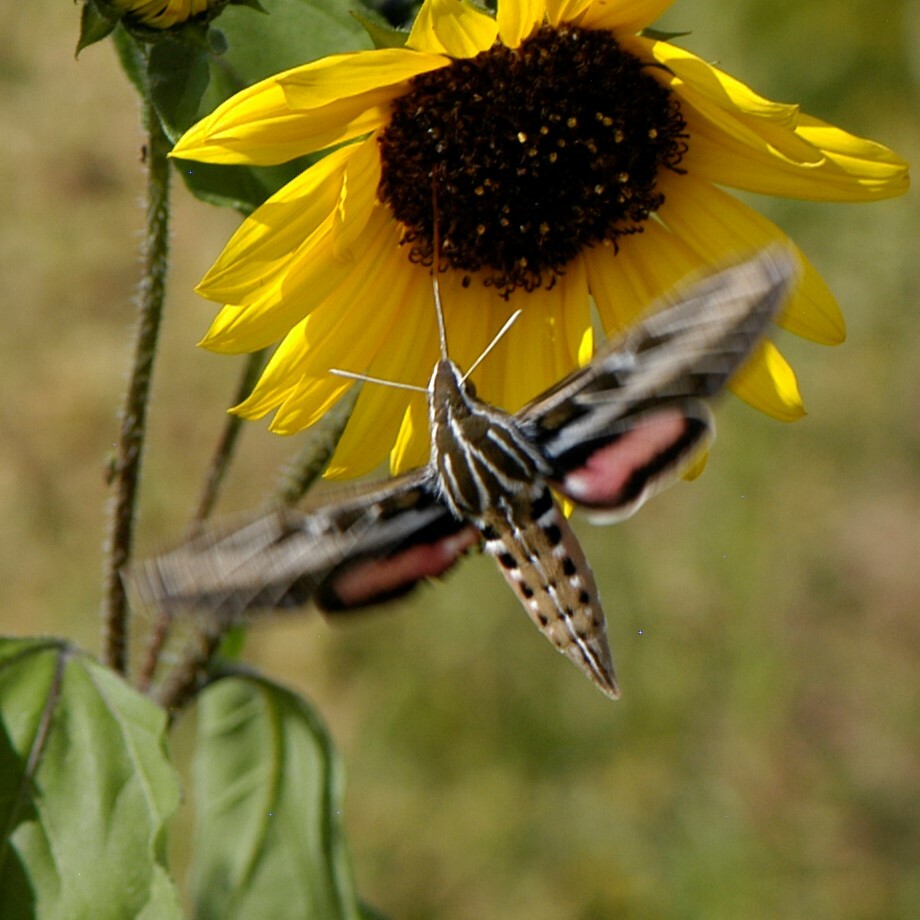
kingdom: Animalia
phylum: Arthropoda
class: Insecta
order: Lepidoptera
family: Sphingidae
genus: Hyles
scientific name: Hyles lineata
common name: White-lined sphinx
